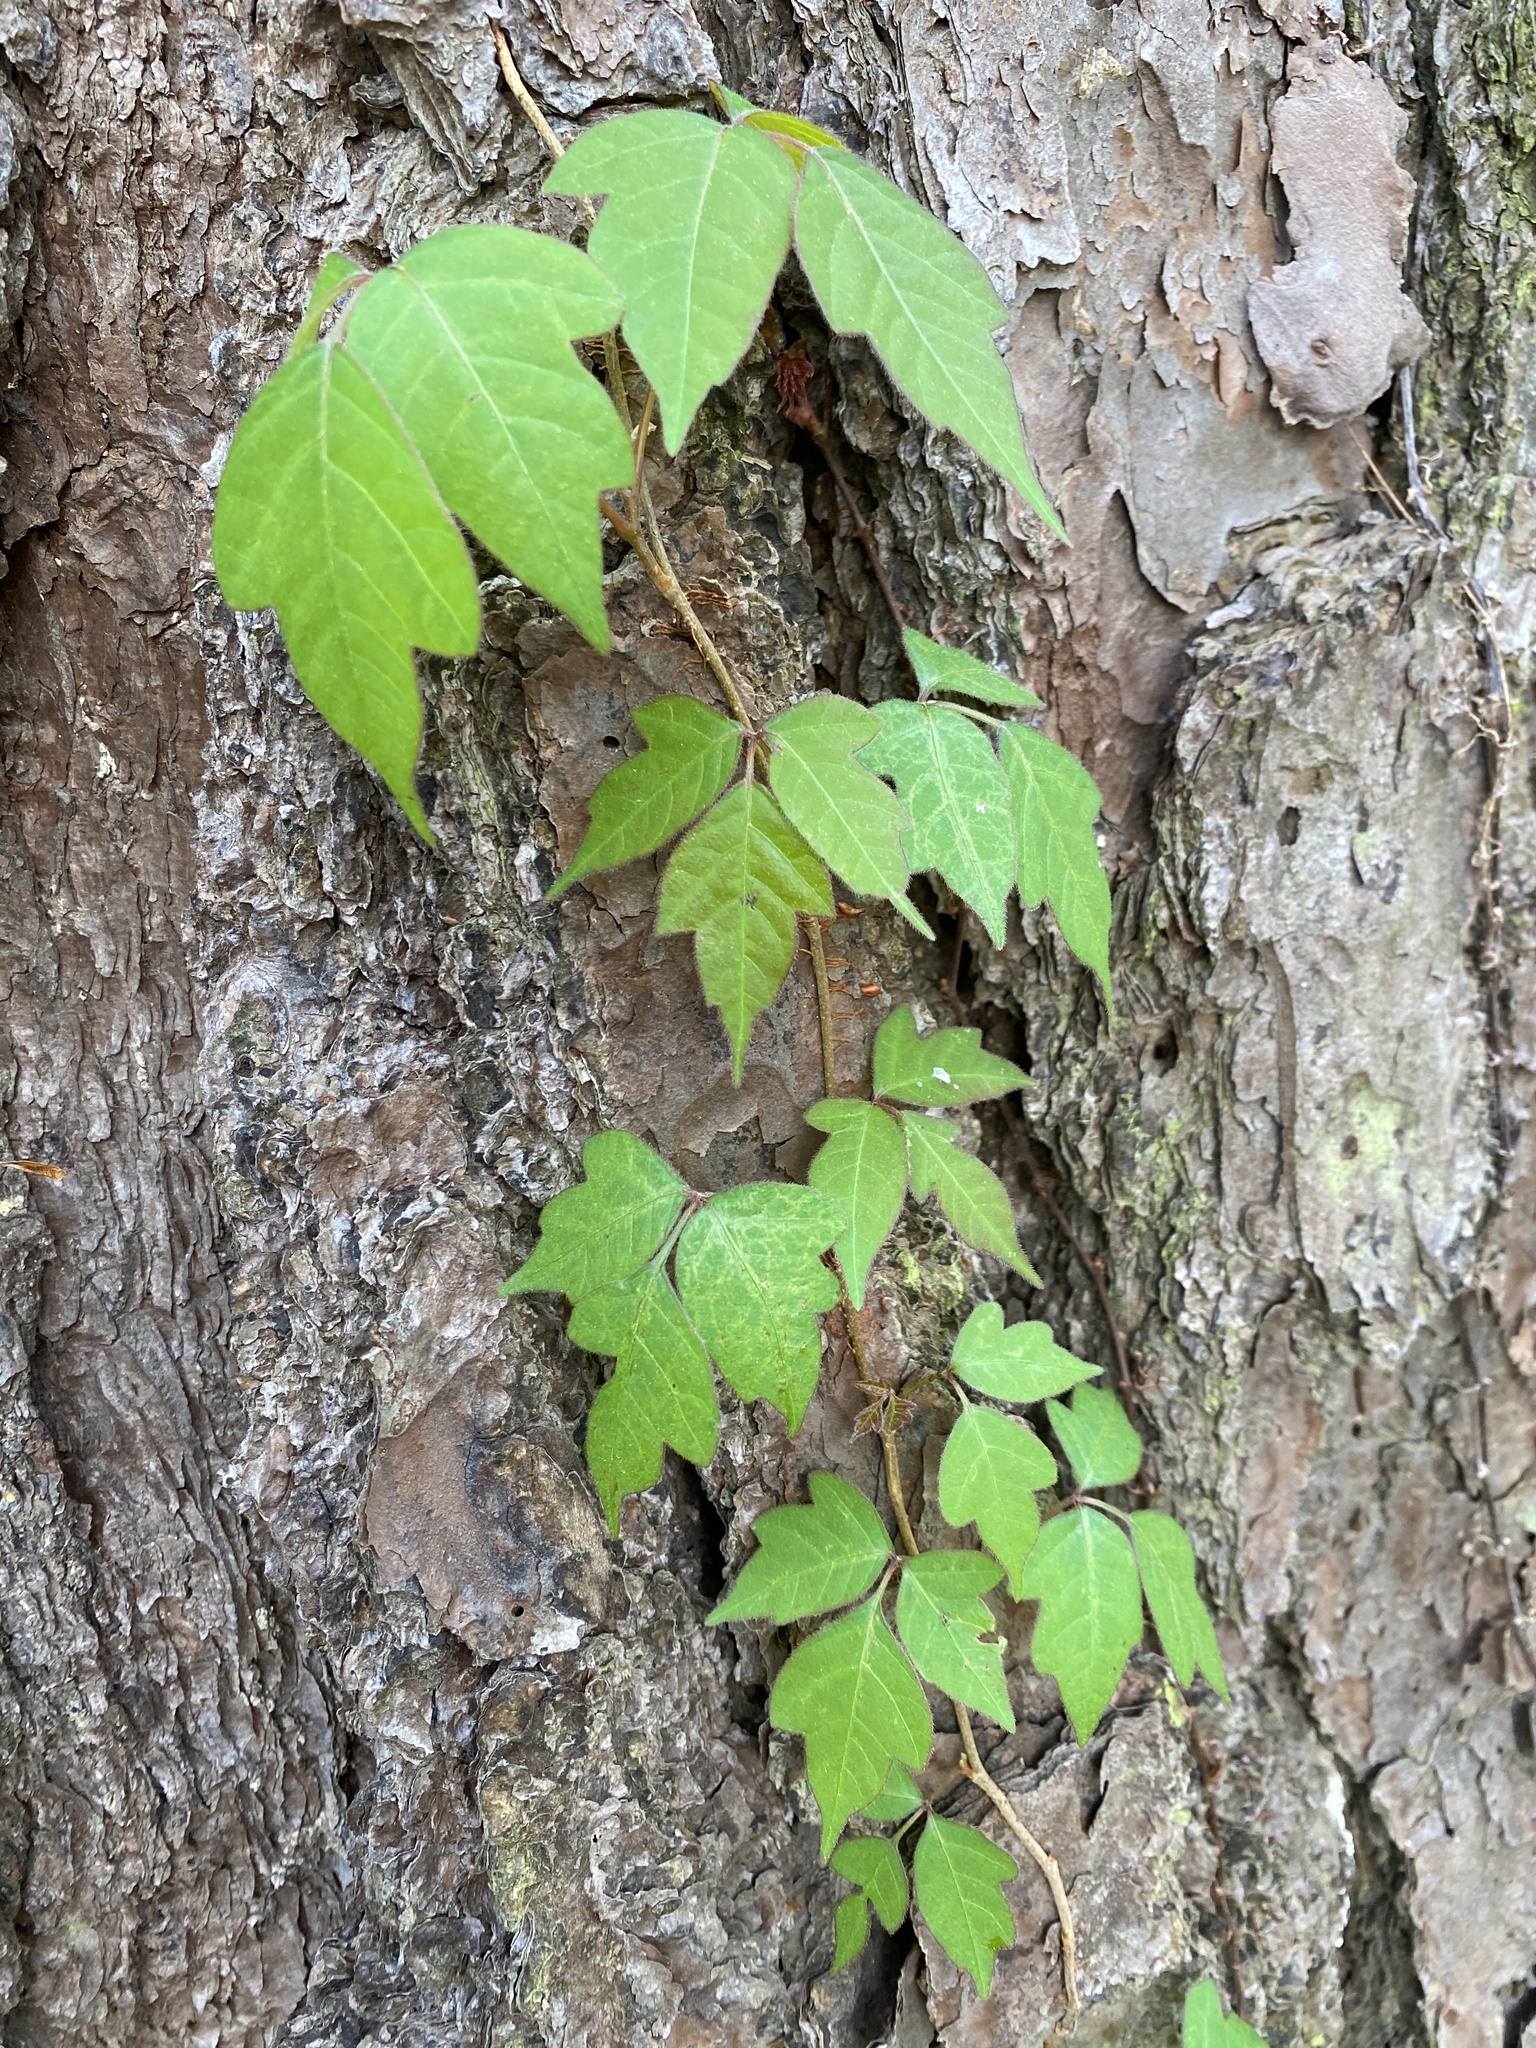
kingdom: Plantae
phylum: Tracheophyta
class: Magnoliopsida
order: Sapindales
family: Anacardiaceae
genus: Toxicodendron
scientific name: Toxicodendron radicans
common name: Poison ivy
